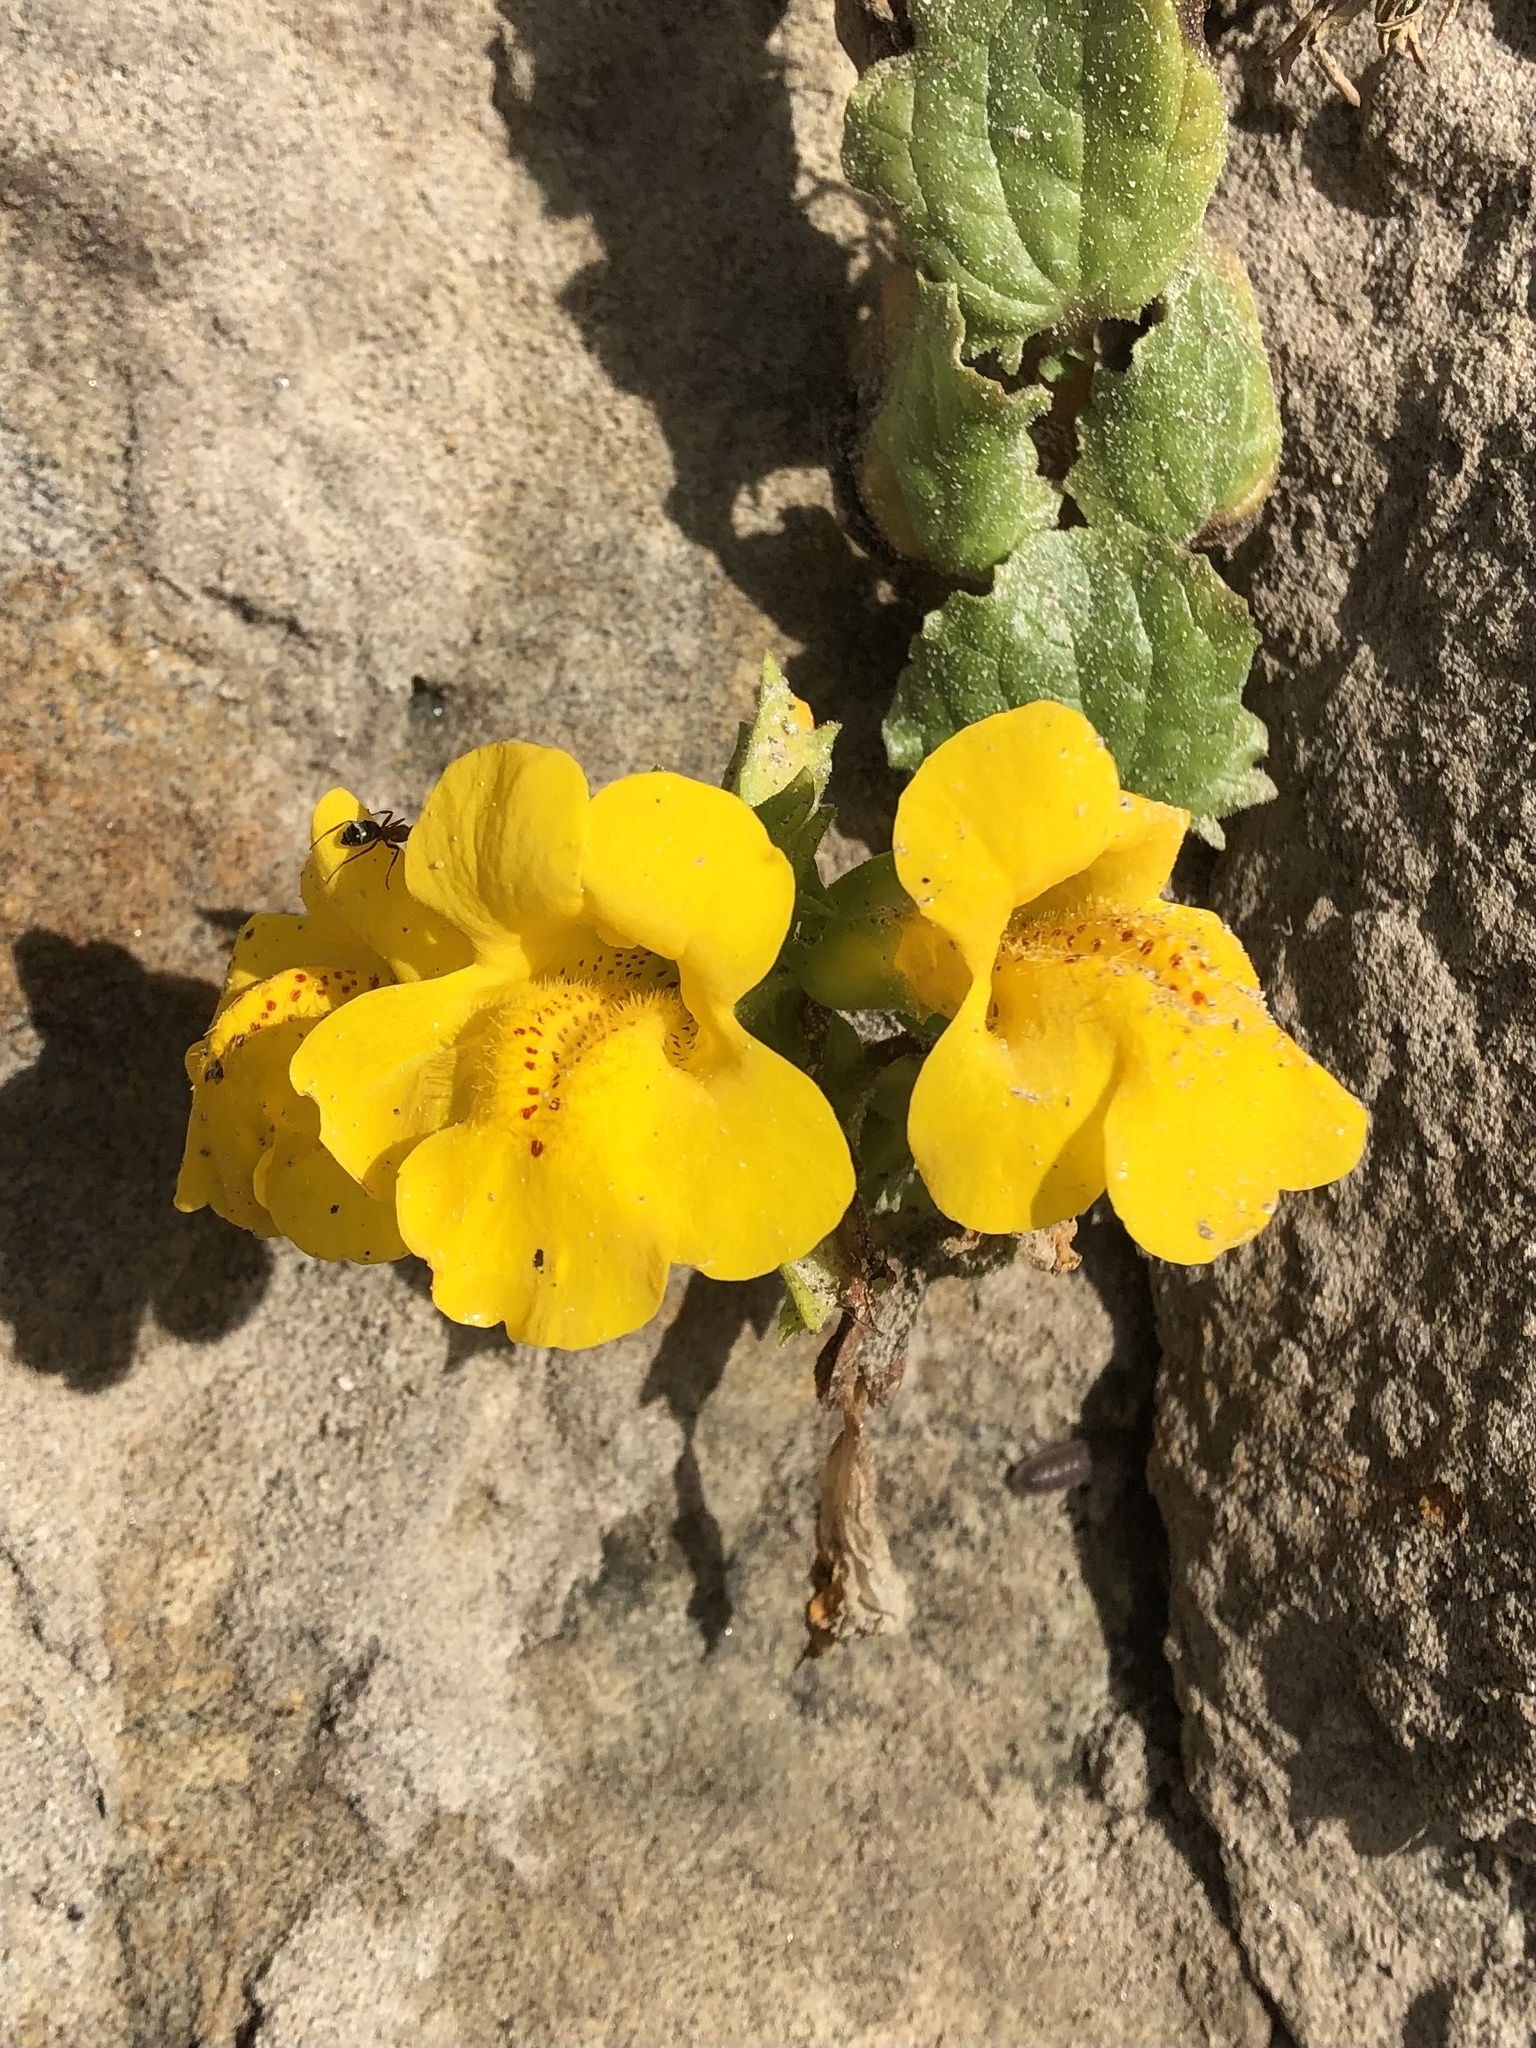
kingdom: Plantae
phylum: Tracheophyta
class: Magnoliopsida
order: Lamiales
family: Phrymaceae
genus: Erythranthe
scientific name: Erythranthe grandis
